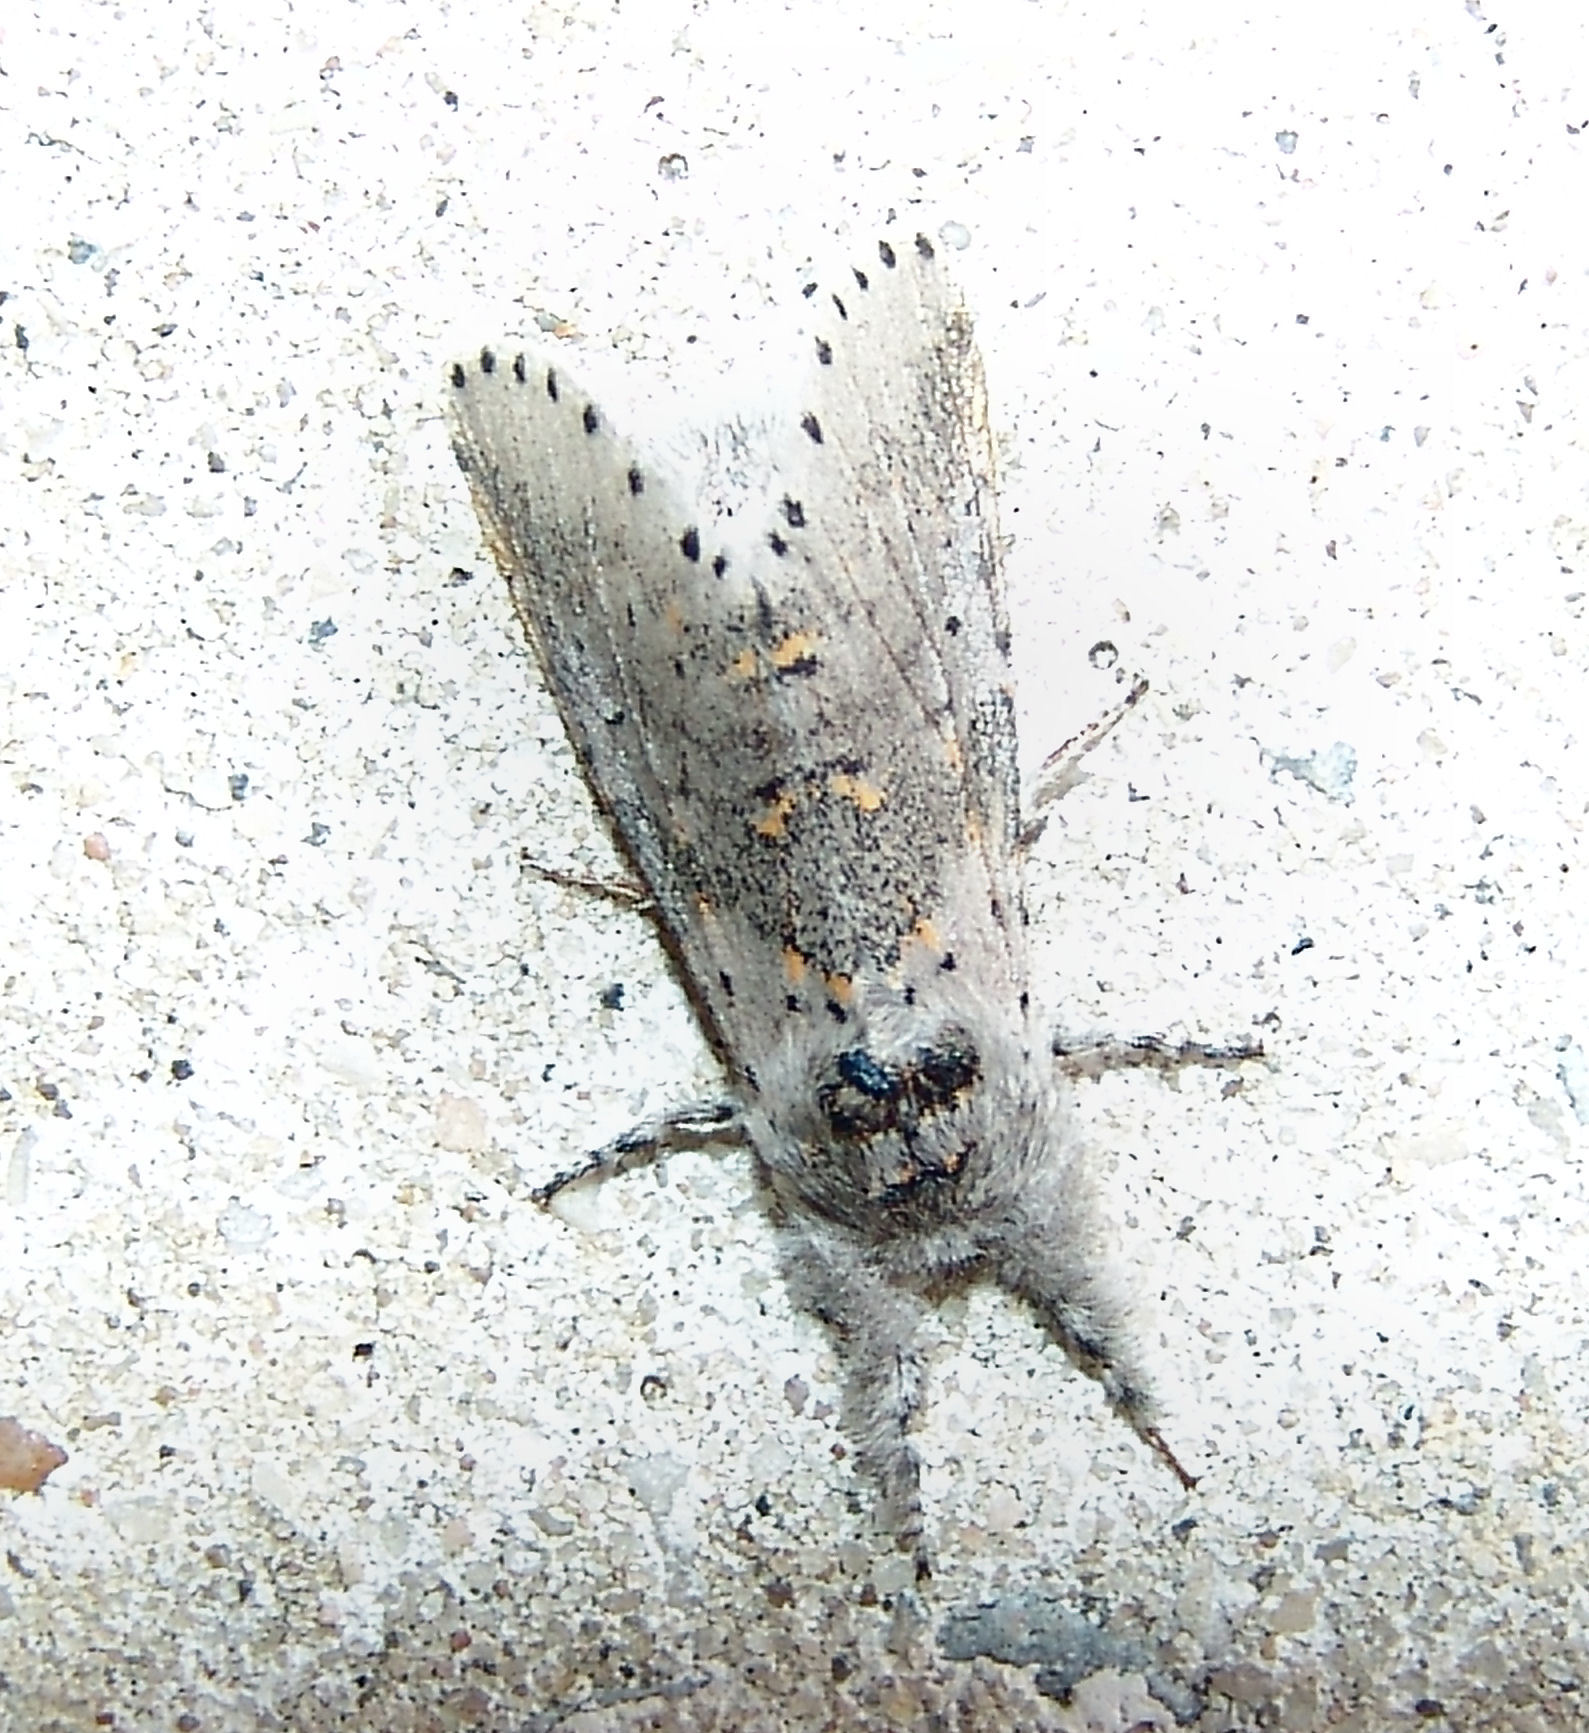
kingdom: Animalia
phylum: Arthropoda
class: Insecta
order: Lepidoptera
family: Notodontidae
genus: Furcula
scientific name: Furcula cinerea
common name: Gray furcula
